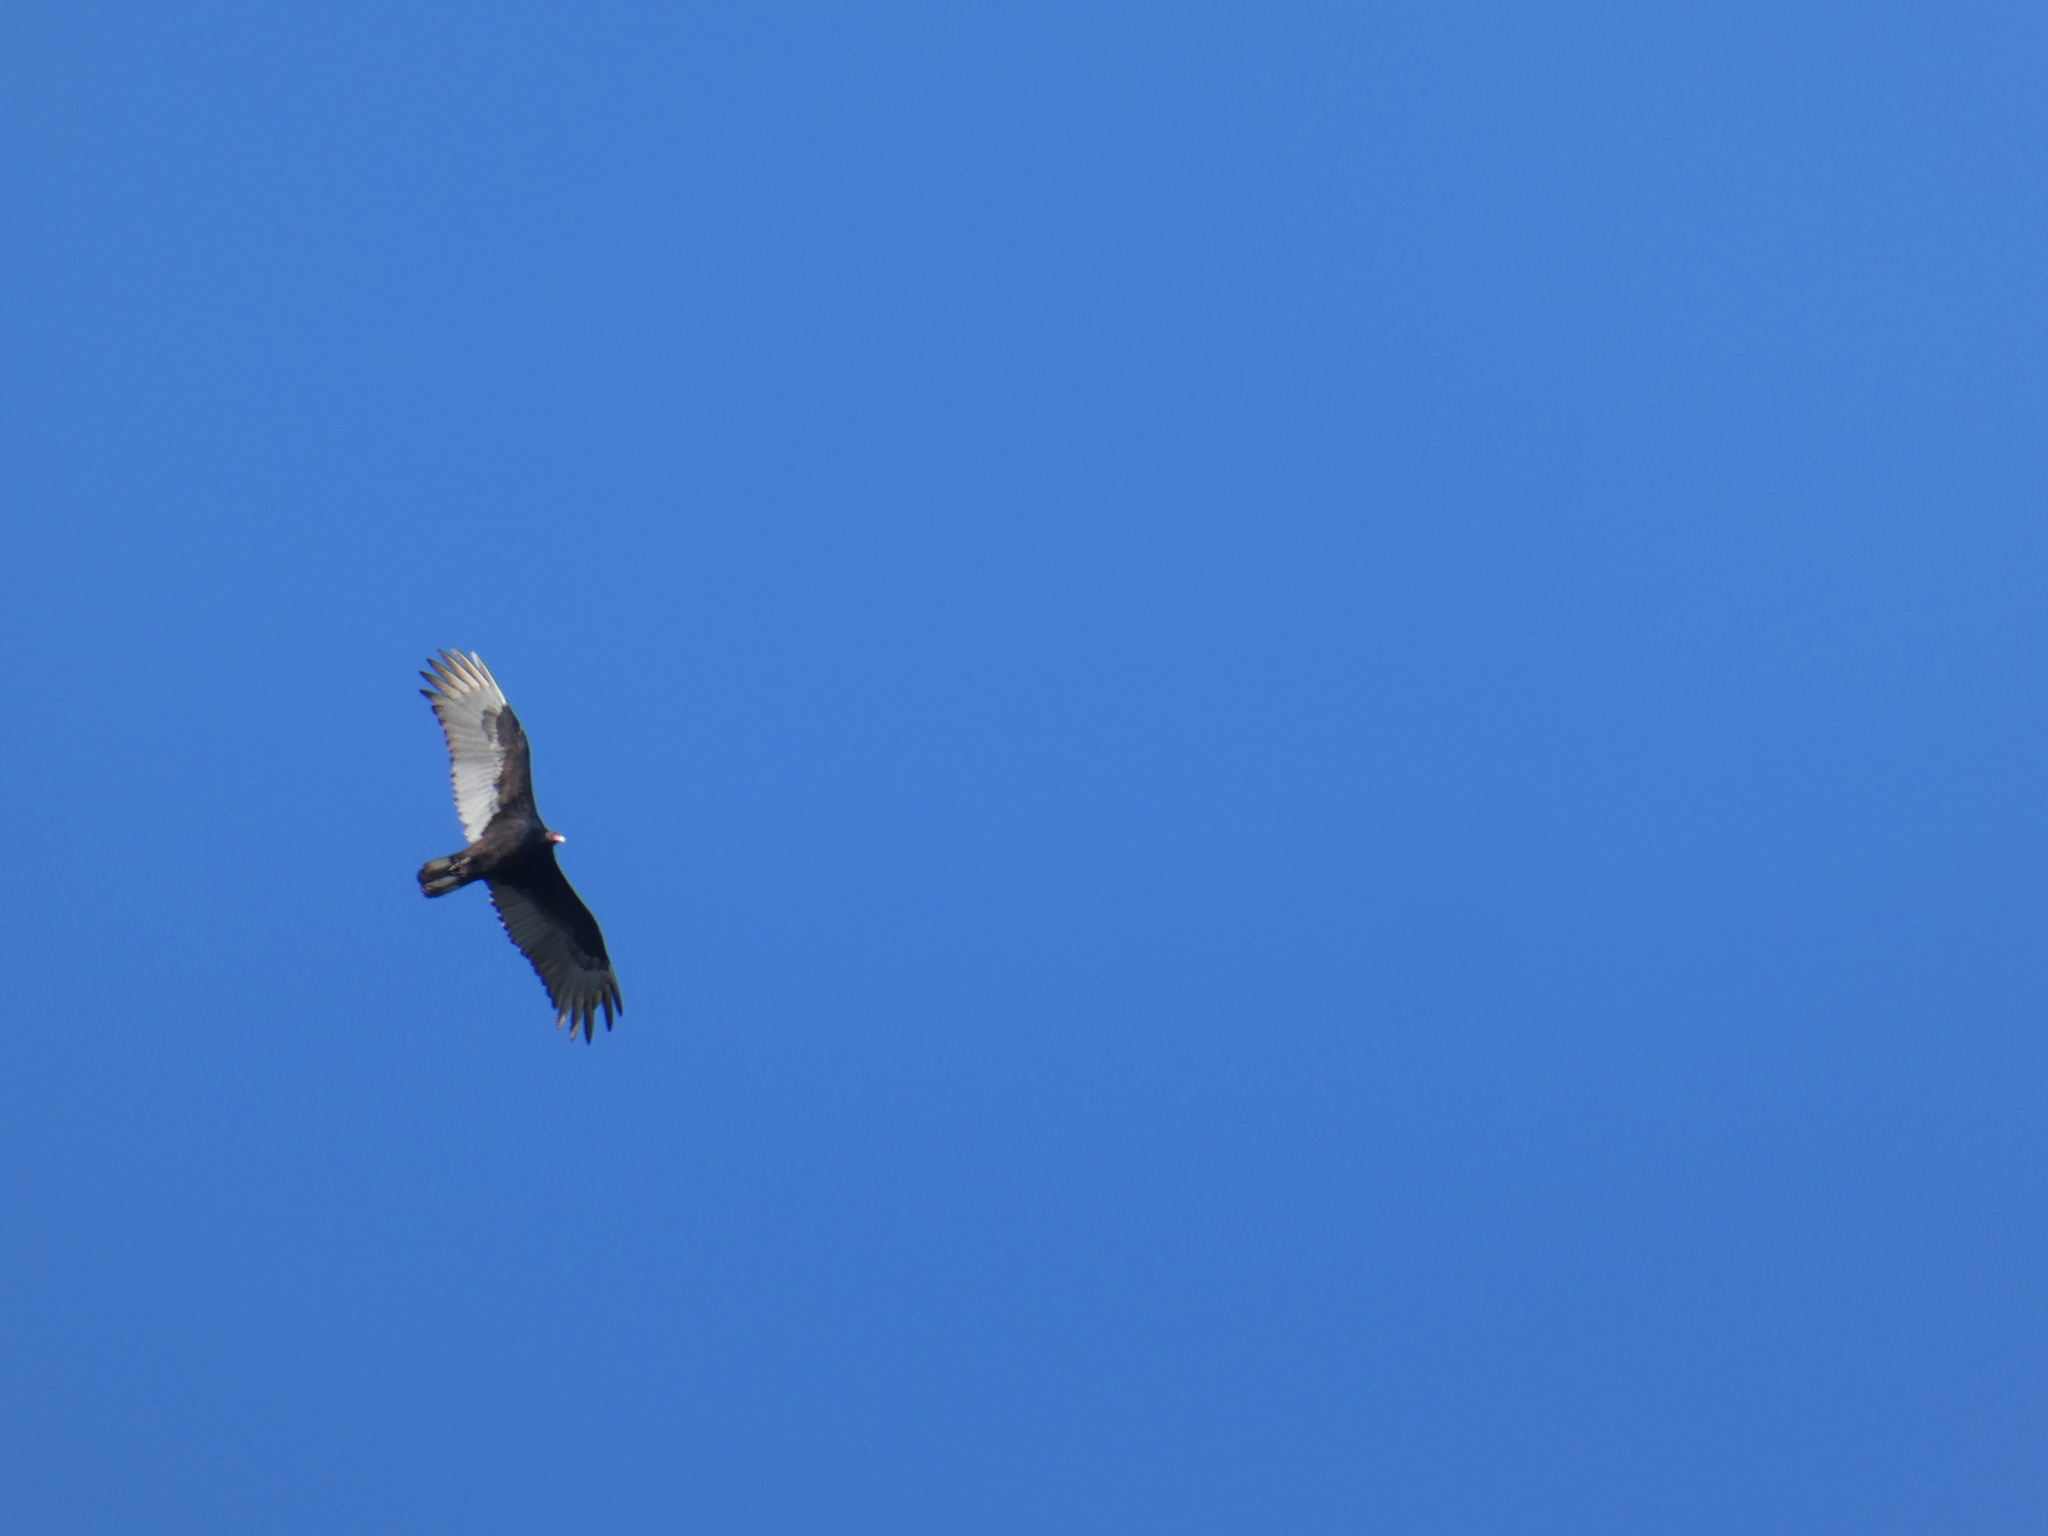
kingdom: Animalia
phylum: Chordata
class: Aves
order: Accipitriformes
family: Cathartidae
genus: Cathartes
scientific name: Cathartes aura
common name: Turkey vulture
